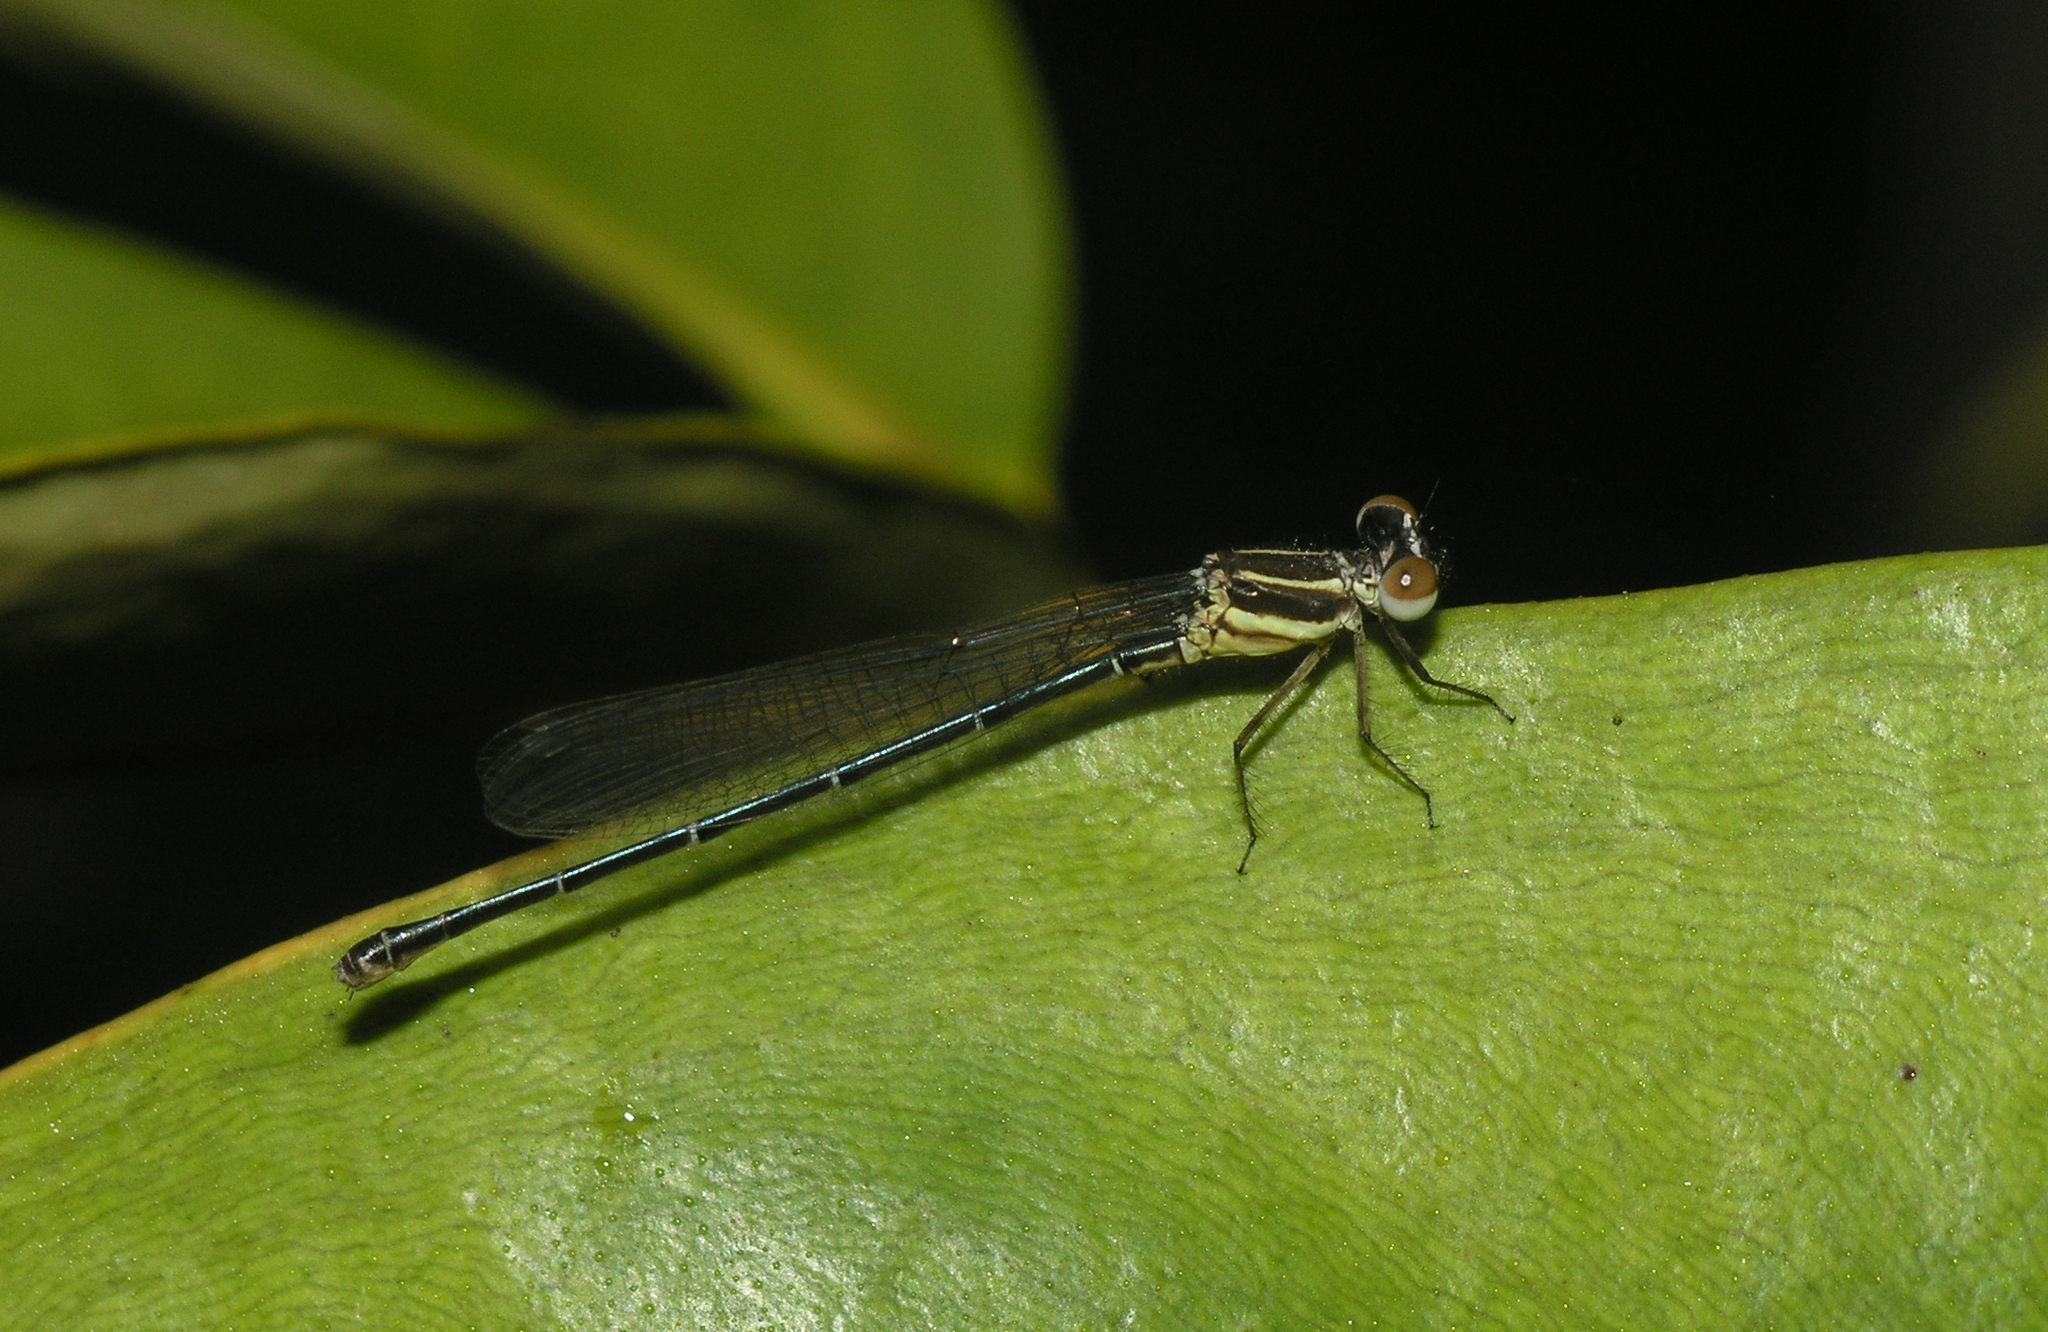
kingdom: Animalia
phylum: Arthropoda
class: Insecta
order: Odonata
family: Platycnemididae
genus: Onychargia
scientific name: Onychargia atrocyana
